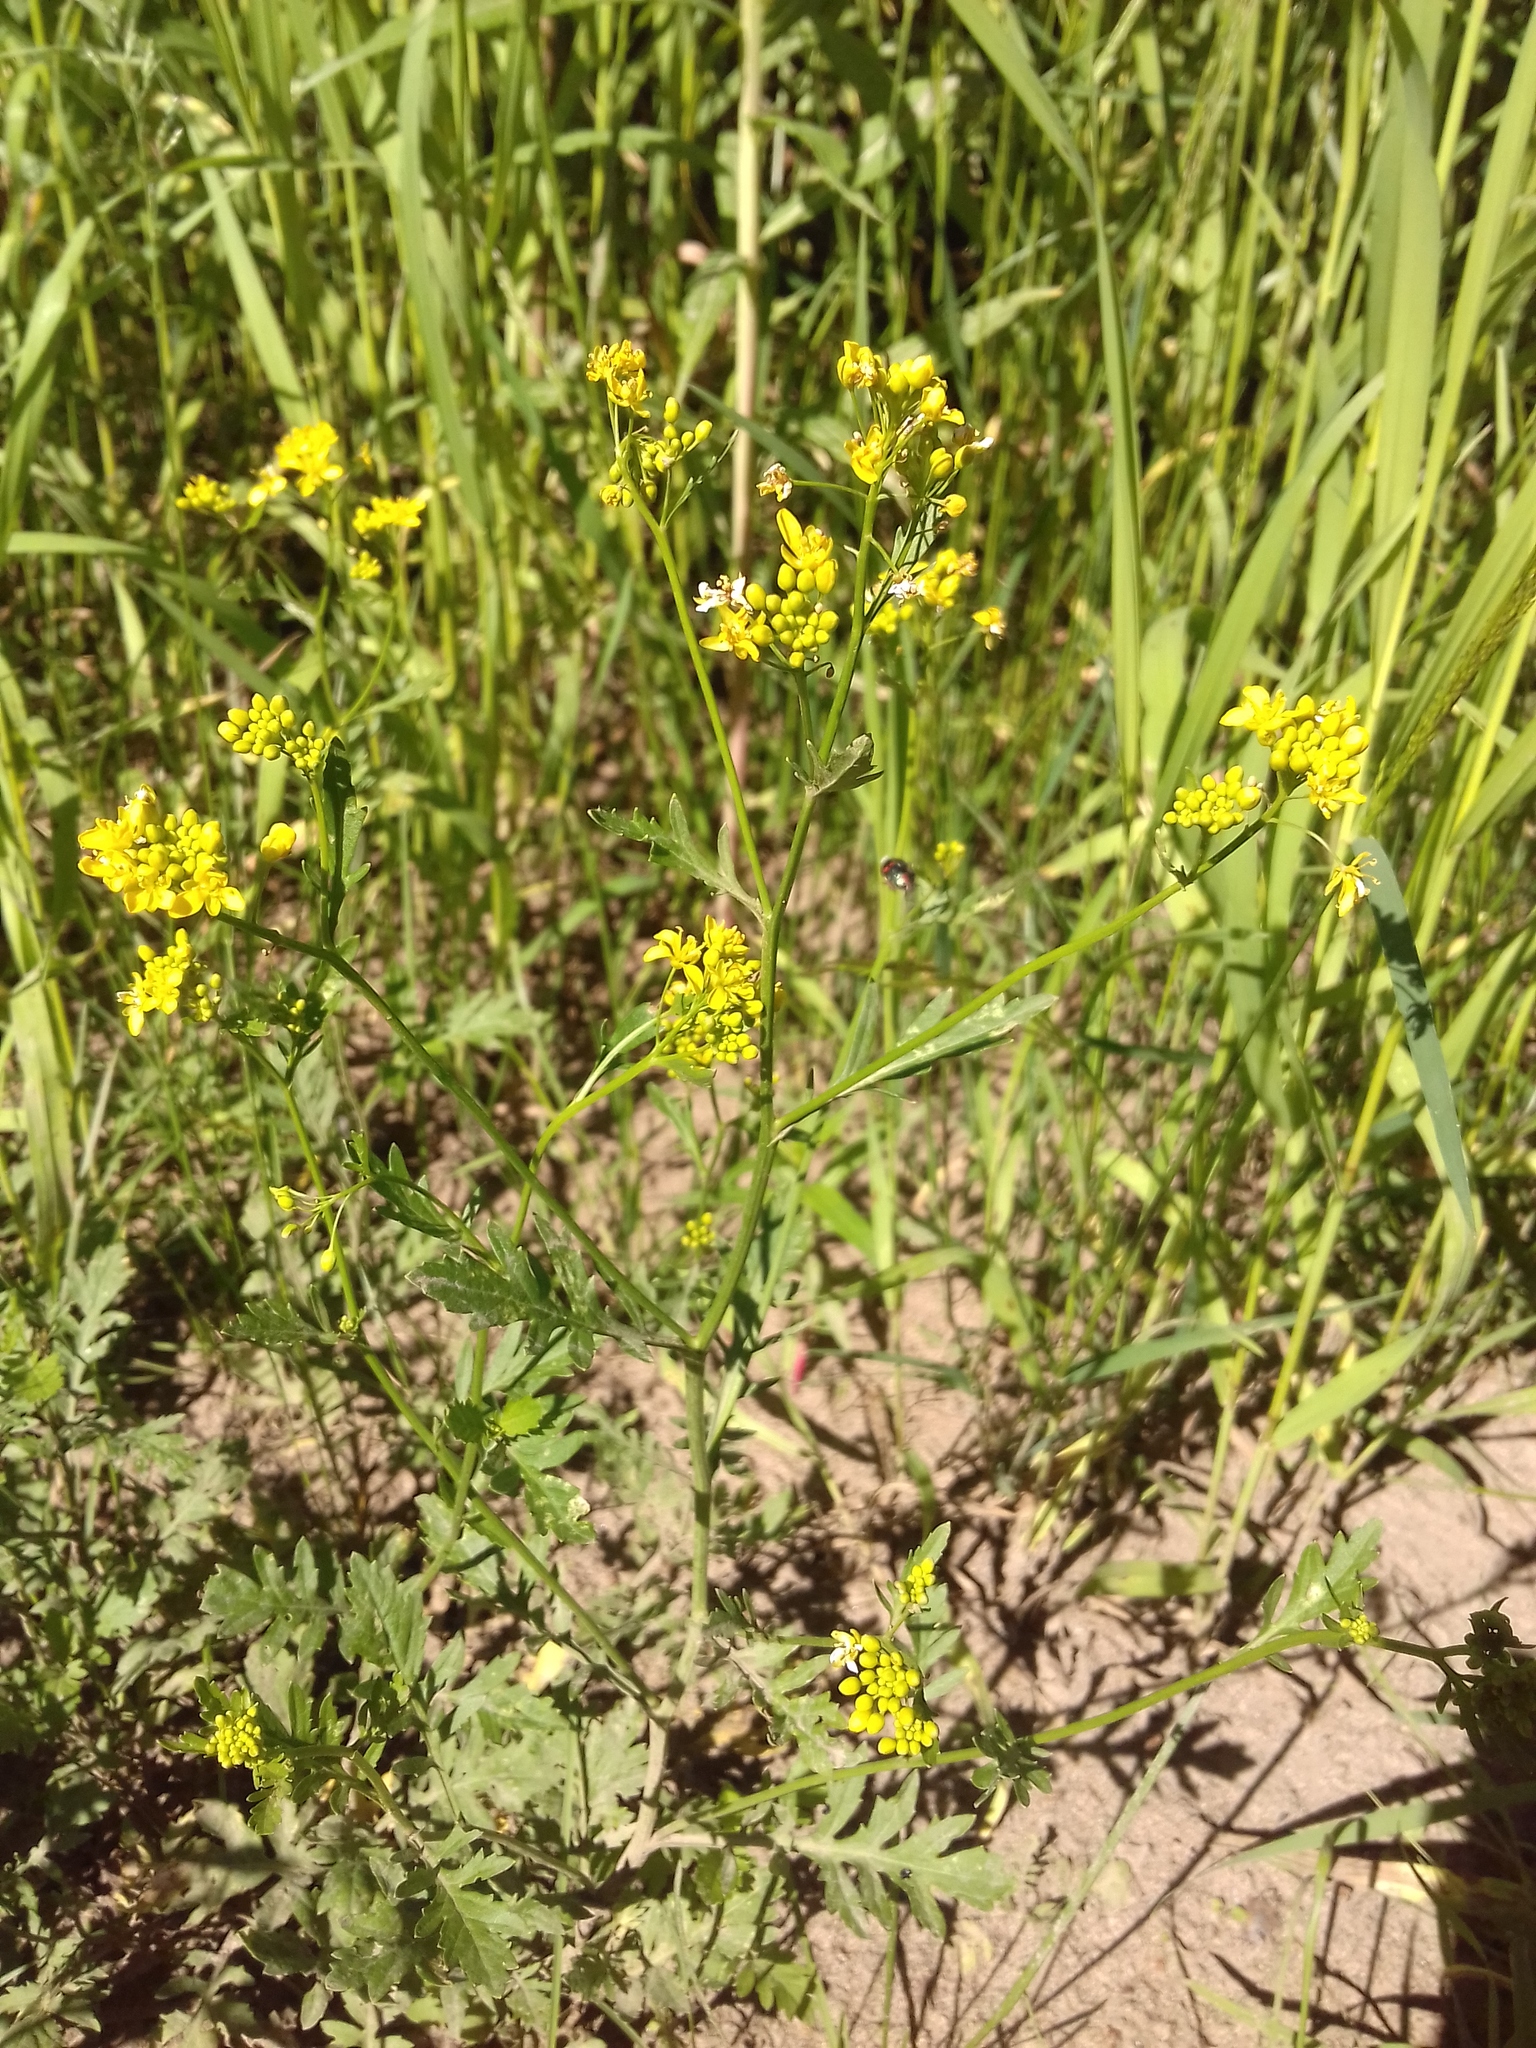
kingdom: Plantae
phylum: Tracheophyta
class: Magnoliopsida
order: Brassicales
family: Brassicaceae
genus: Rorippa
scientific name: Rorippa sylvestris
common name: Creeping yellowcress
